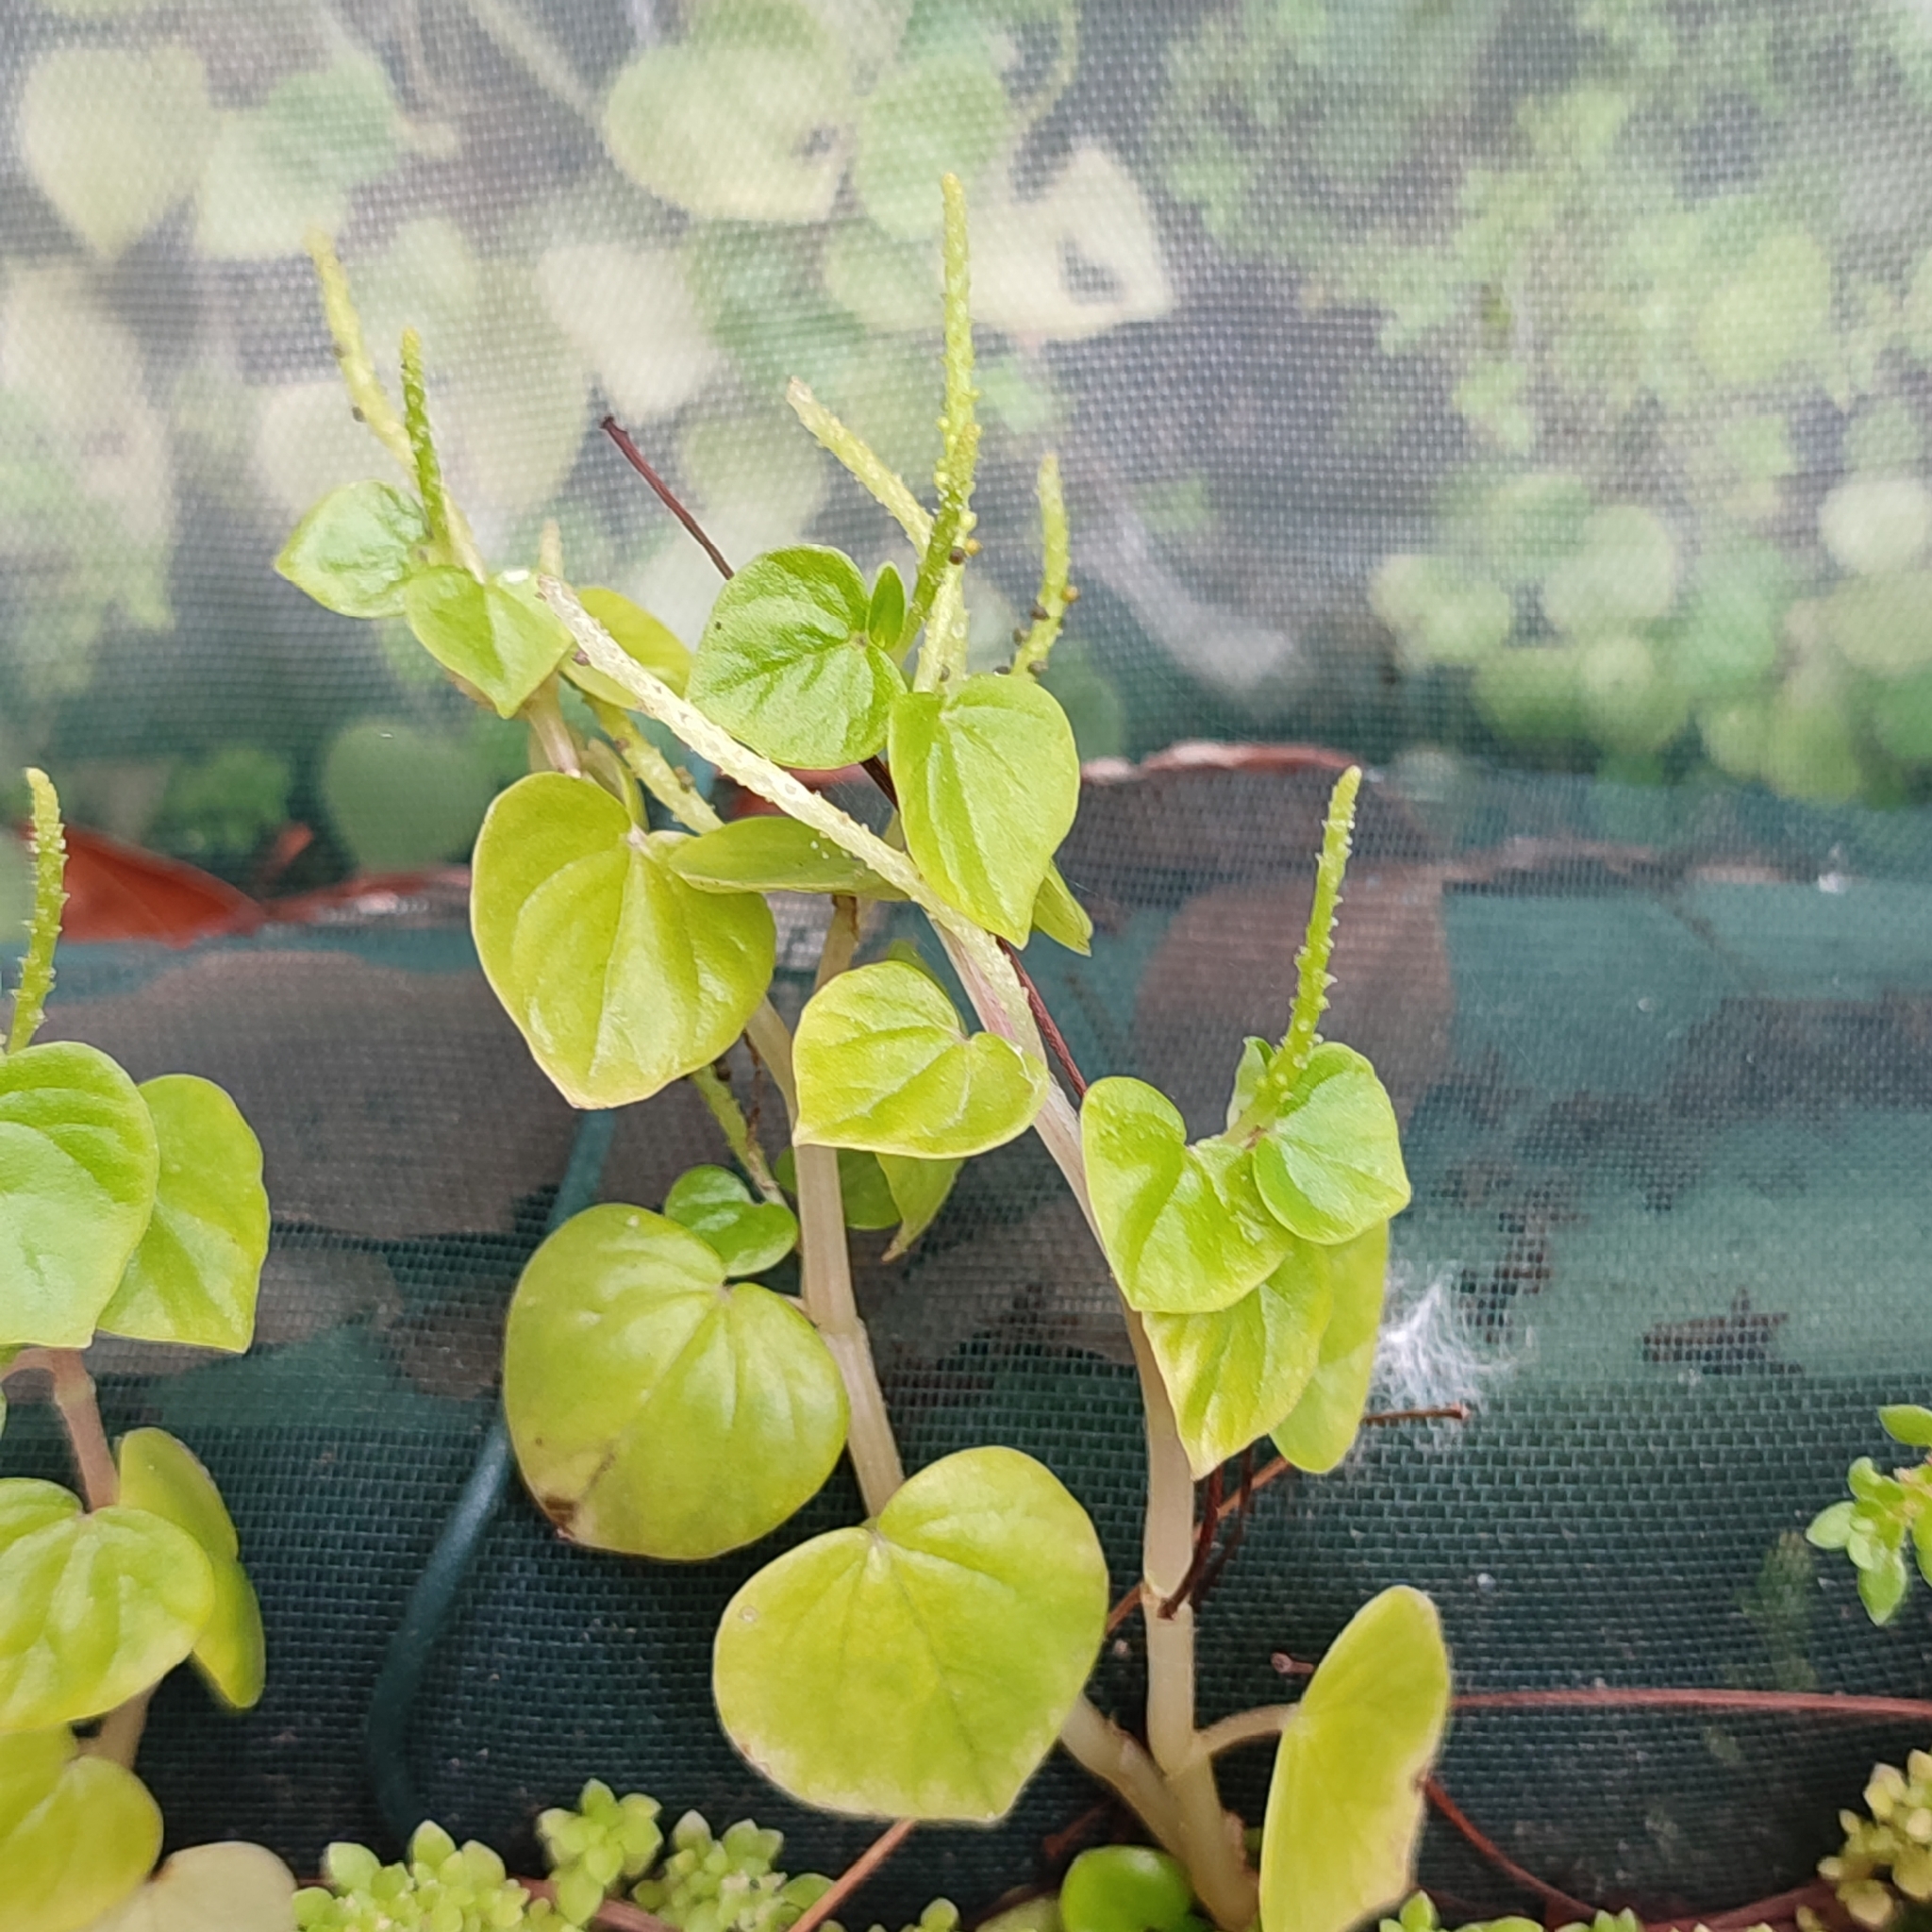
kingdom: Plantae
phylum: Tracheophyta
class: Magnoliopsida
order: Piperales
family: Piperaceae
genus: Peperomia
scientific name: Peperomia pellucida
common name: Man to man
